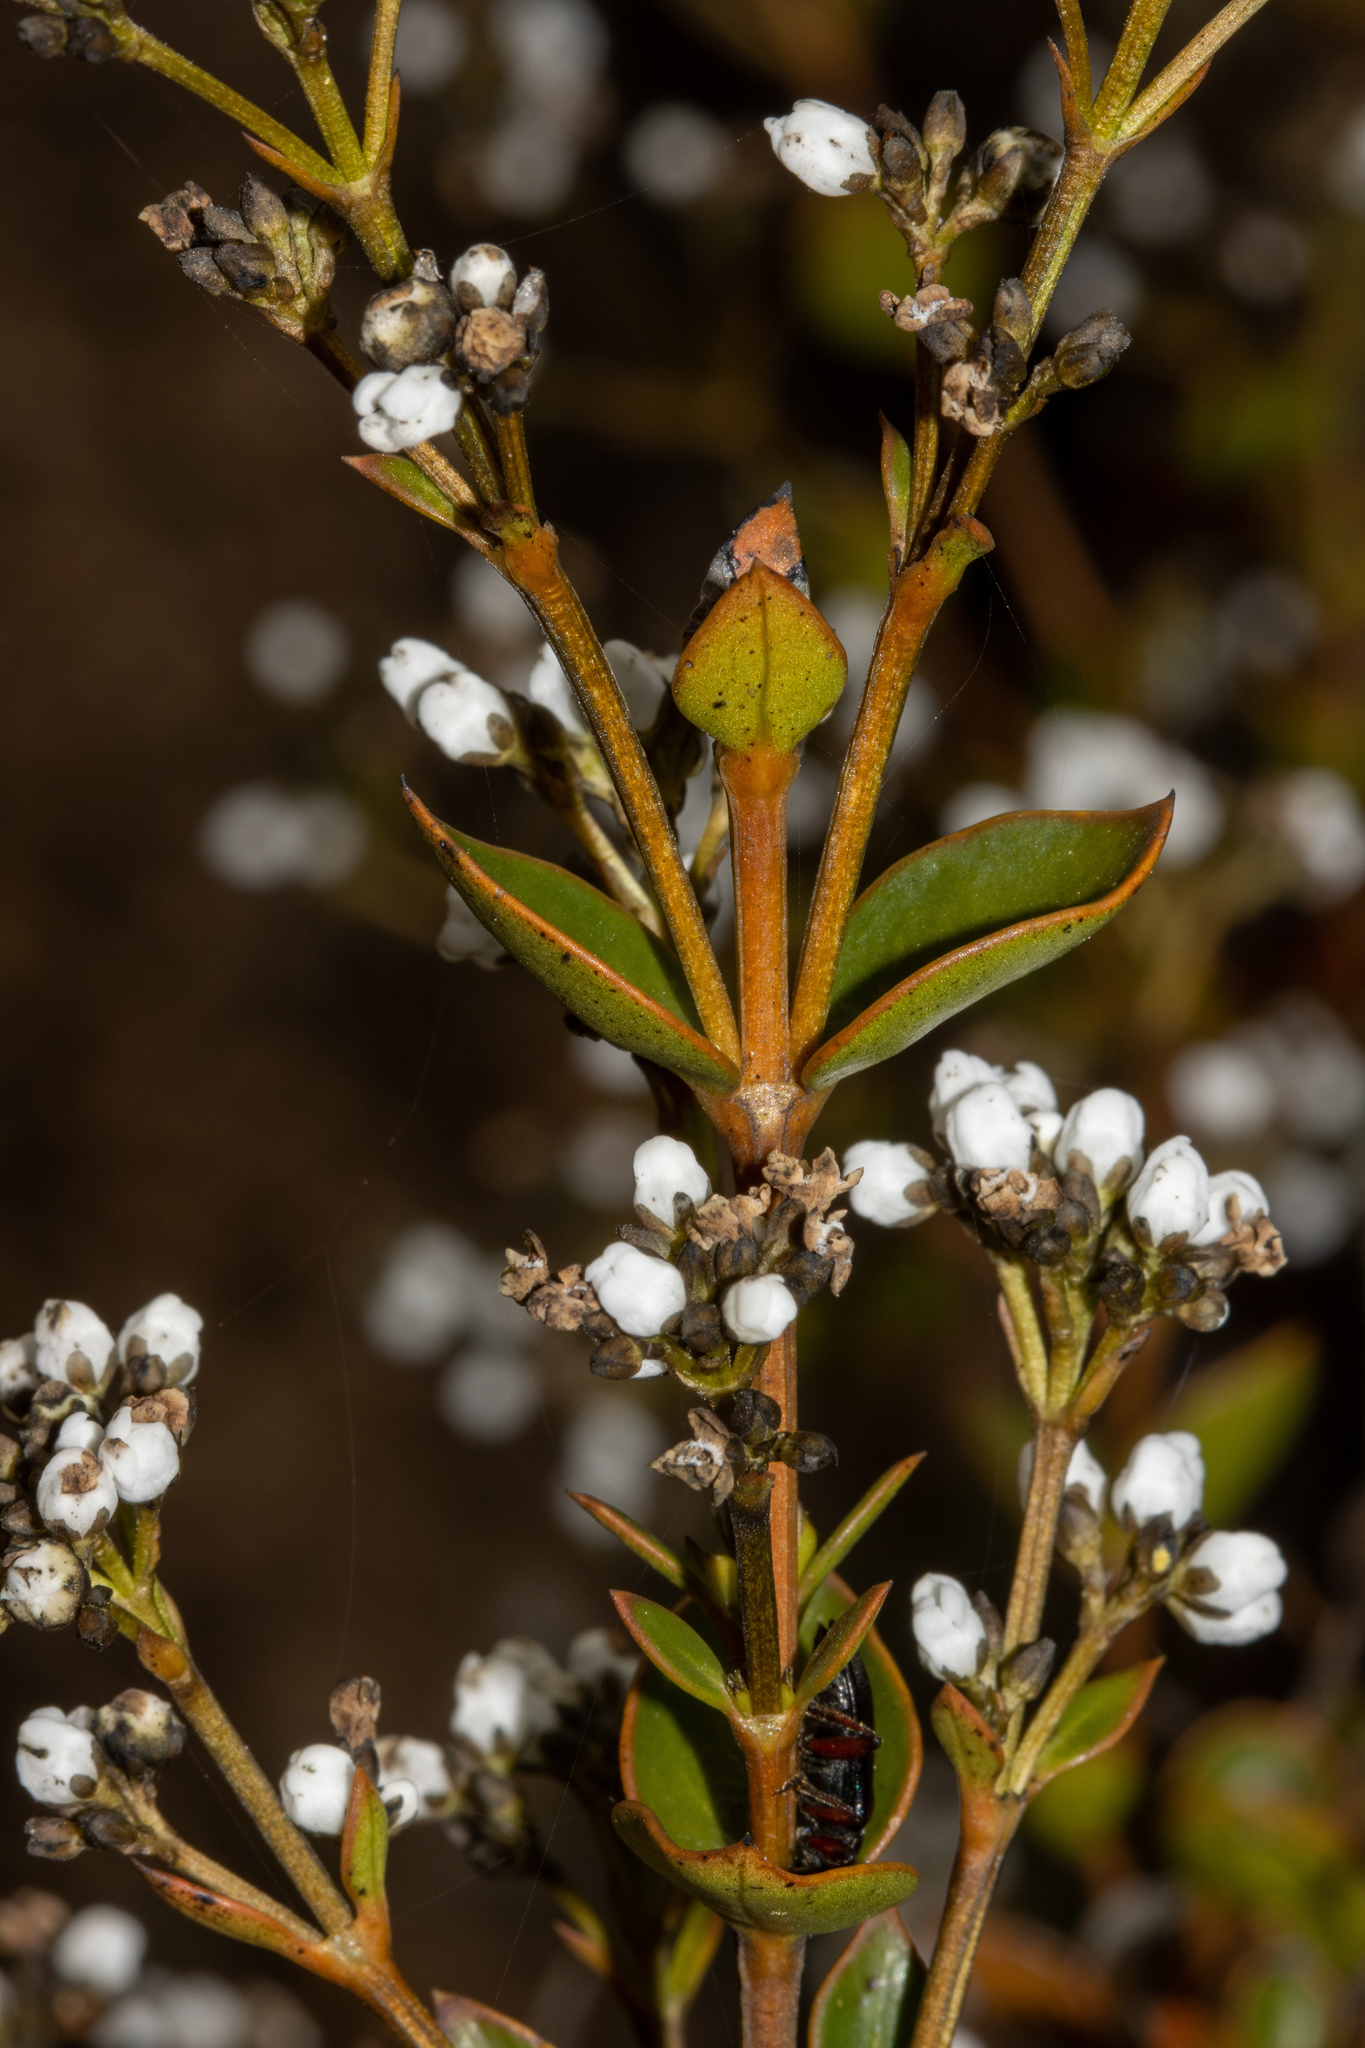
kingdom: Plantae
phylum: Tracheophyta
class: Magnoliopsida
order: Gentianales
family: Loganiaceae
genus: Logania
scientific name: Logania ovata
